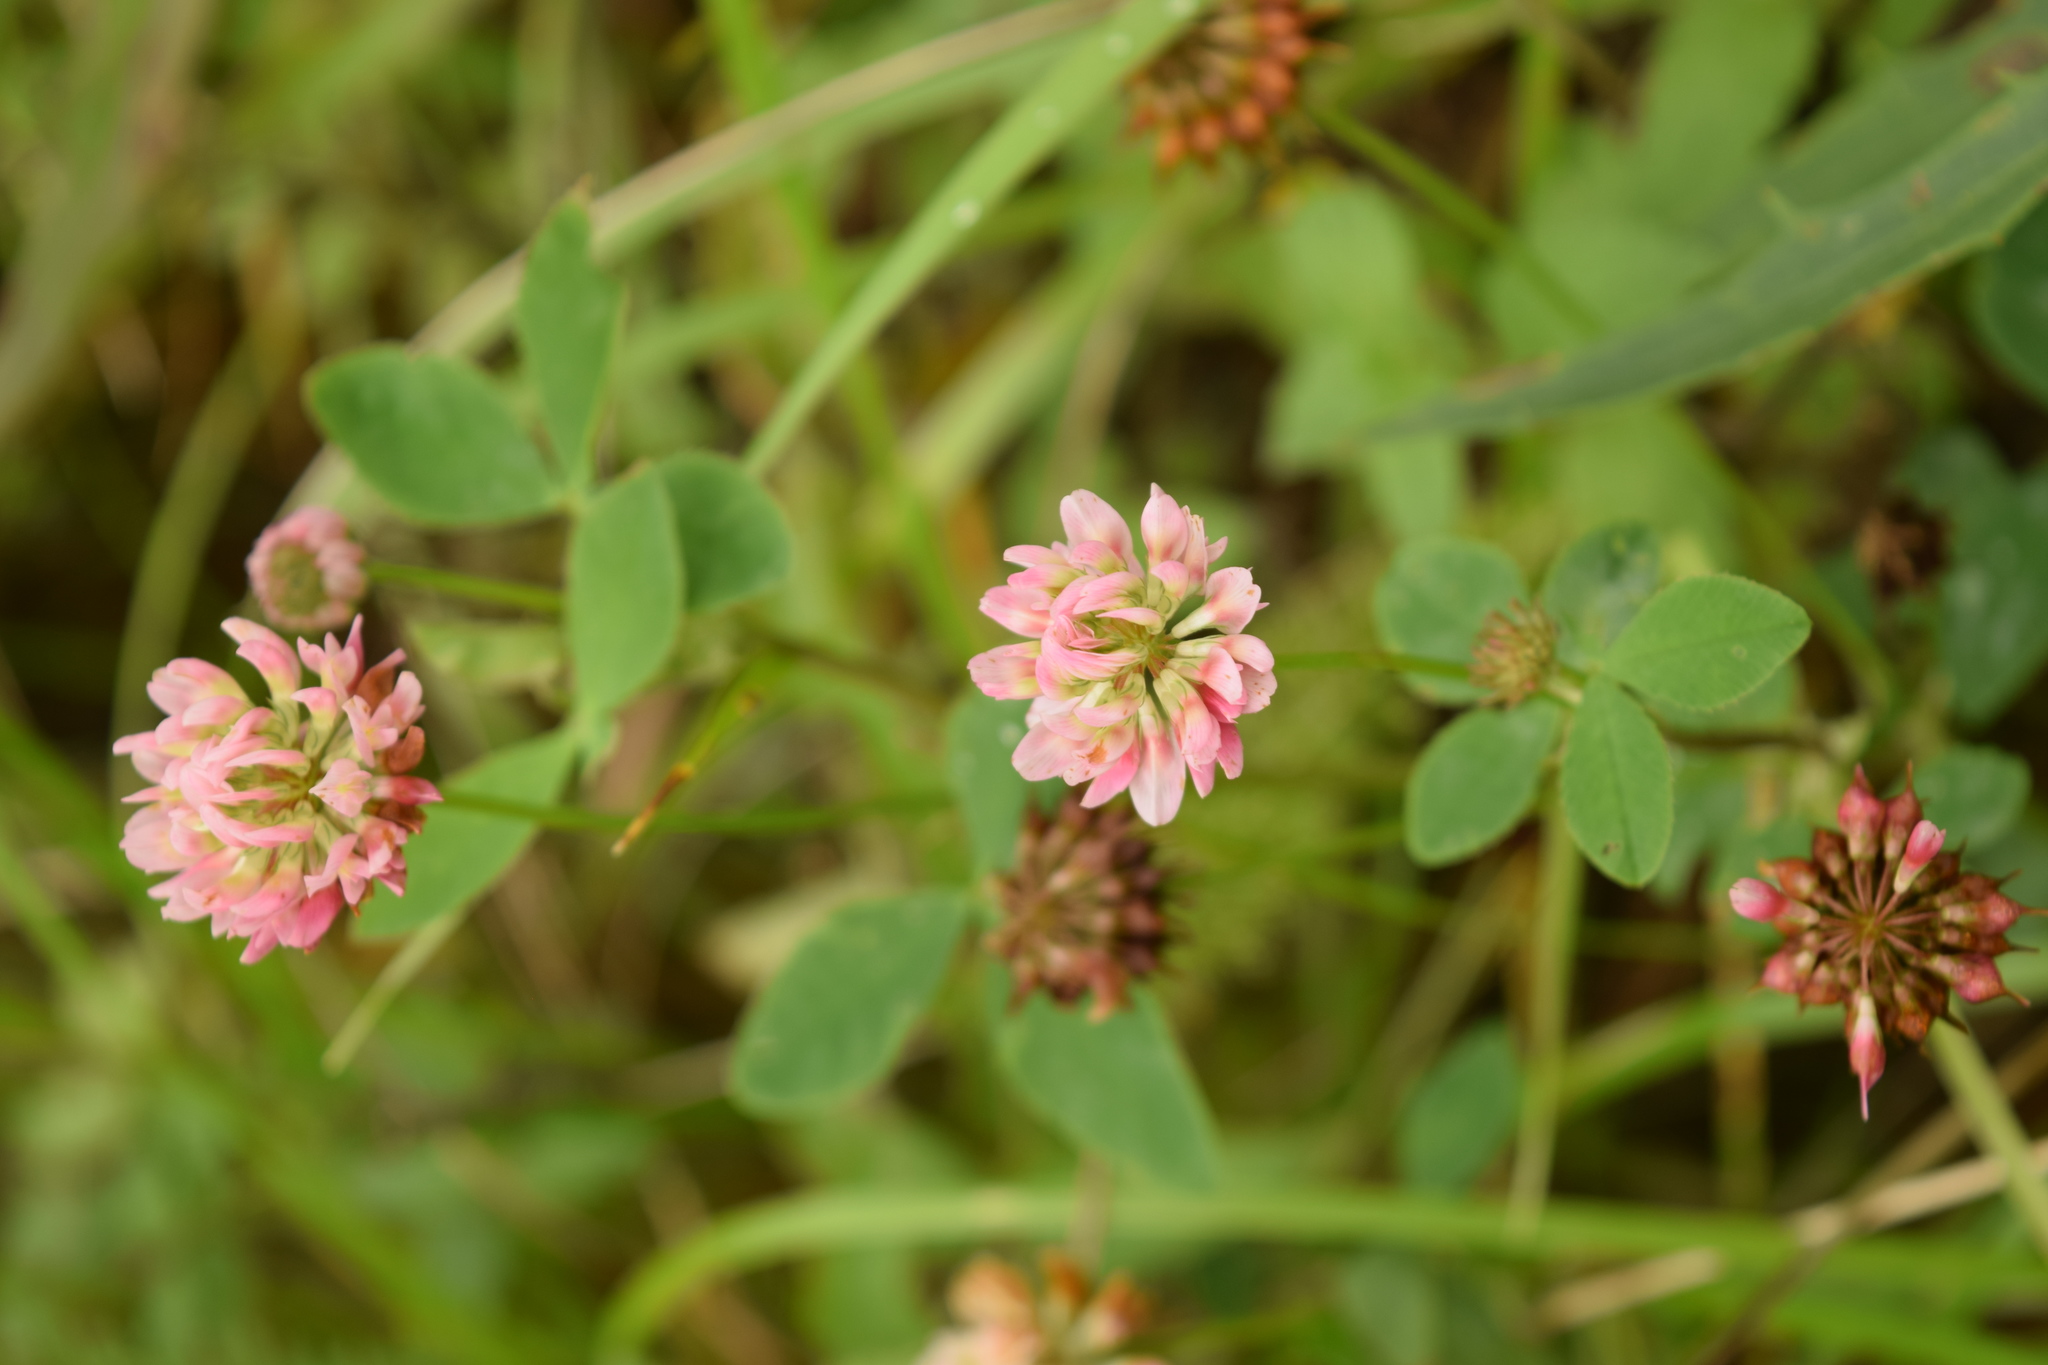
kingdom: Plantae
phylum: Tracheophyta
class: Magnoliopsida
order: Fabales
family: Fabaceae
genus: Trifolium
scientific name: Trifolium hybridum
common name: Alsike clover
